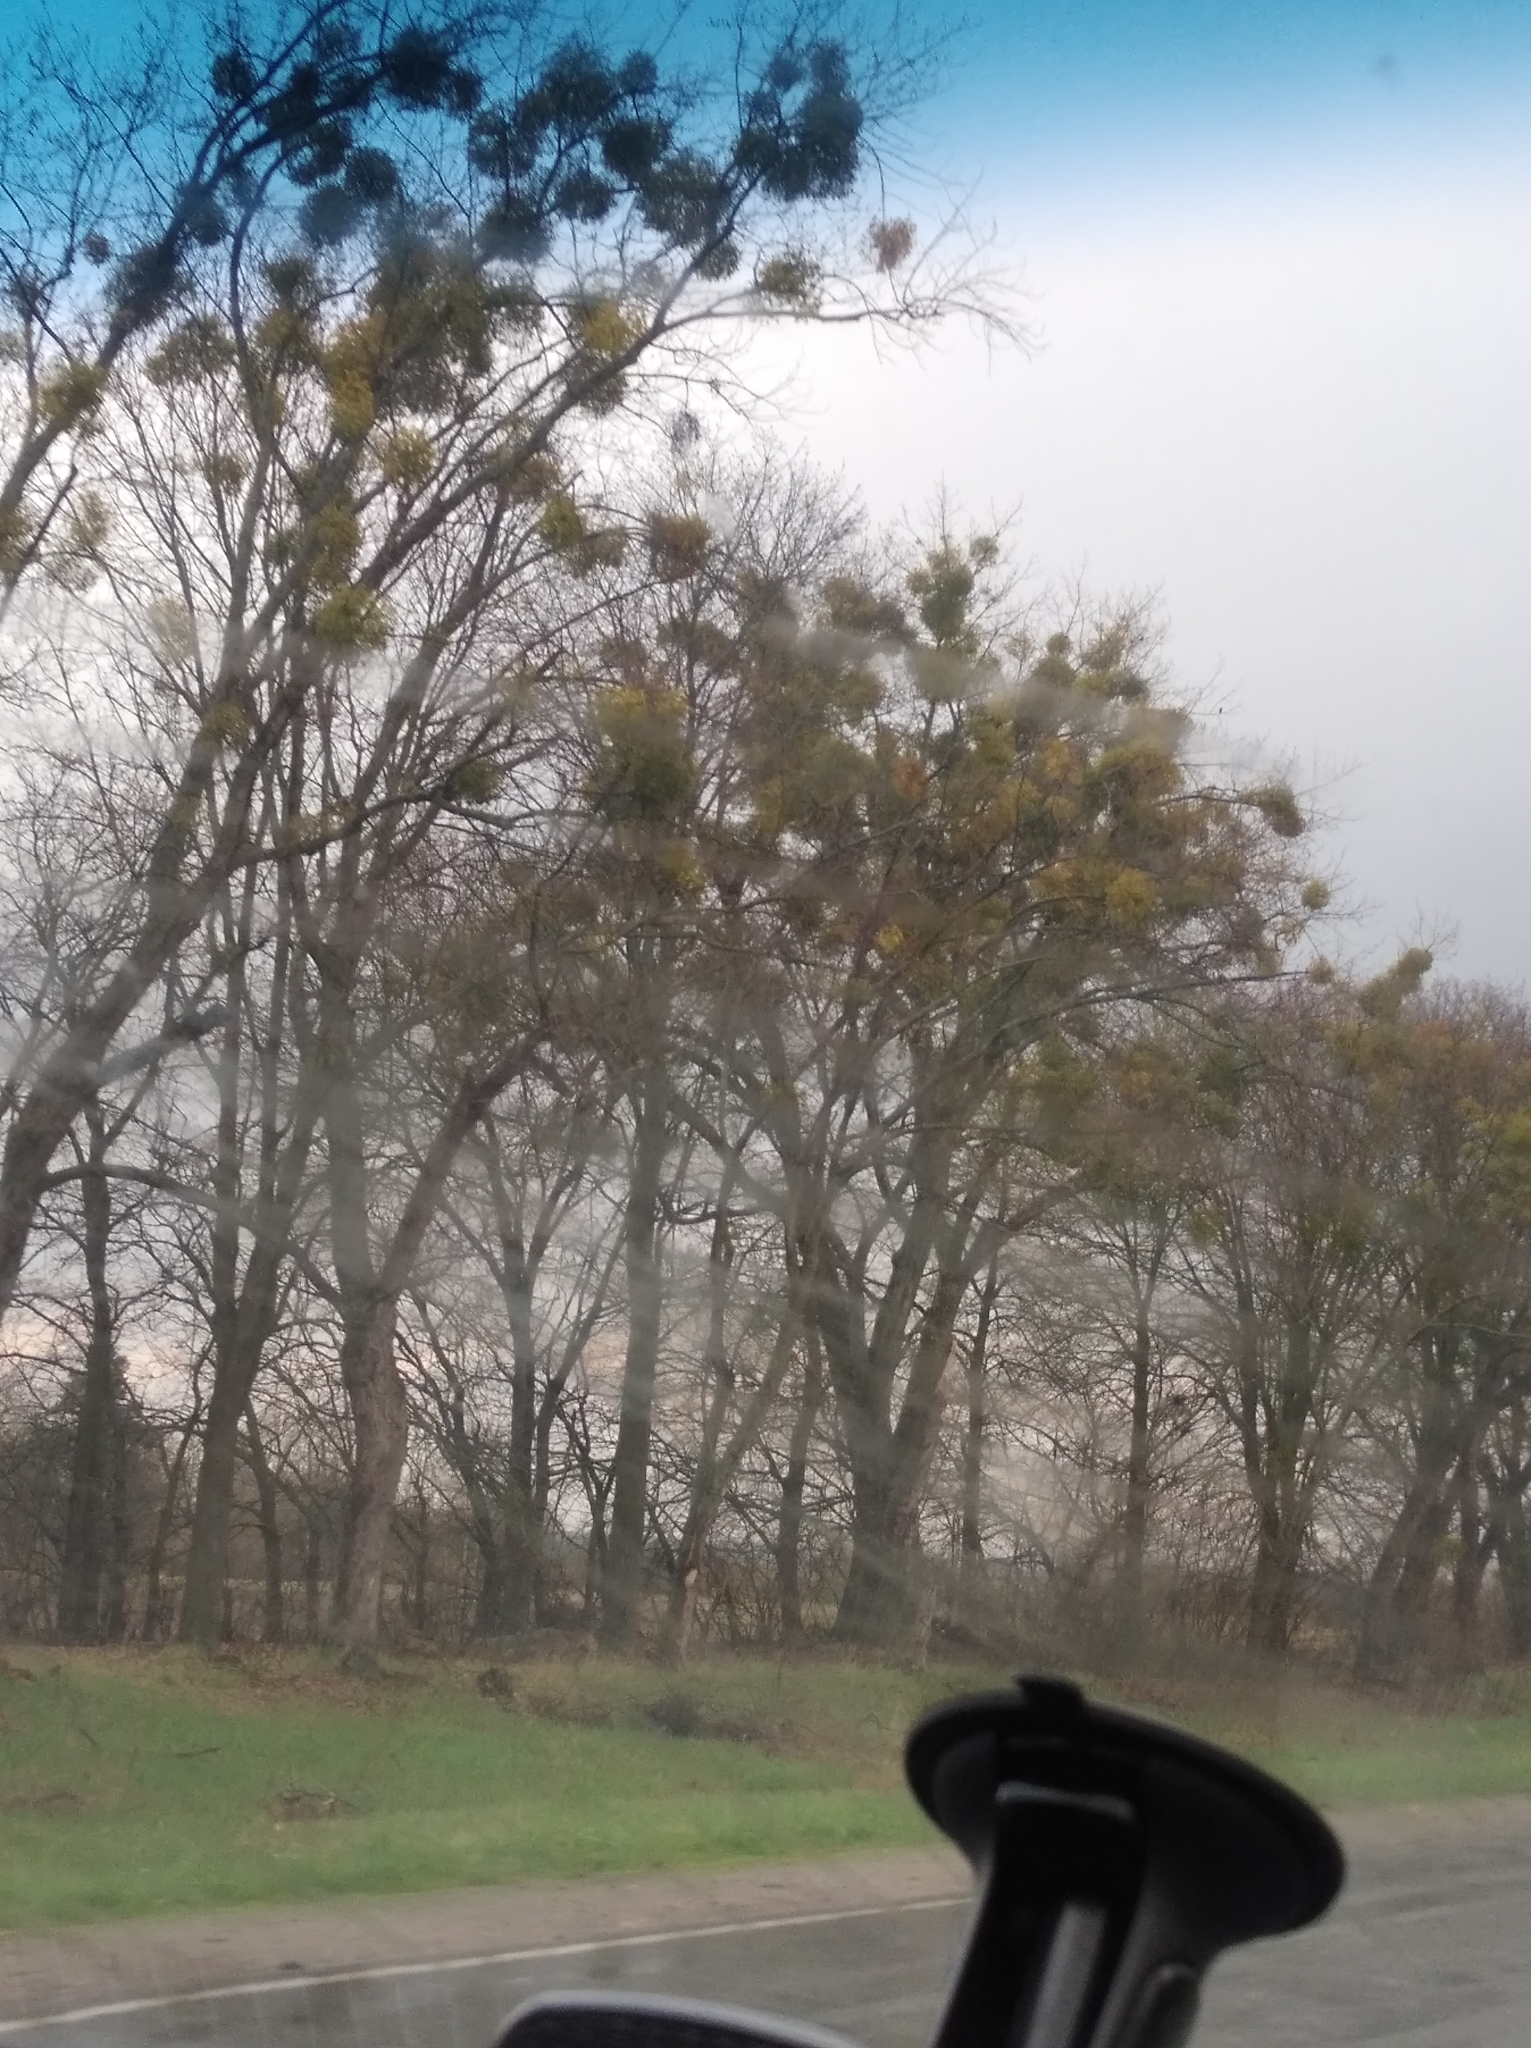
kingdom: Plantae
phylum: Tracheophyta
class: Magnoliopsida
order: Santalales
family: Viscaceae
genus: Viscum
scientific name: Viscum album
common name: Mistletoe
